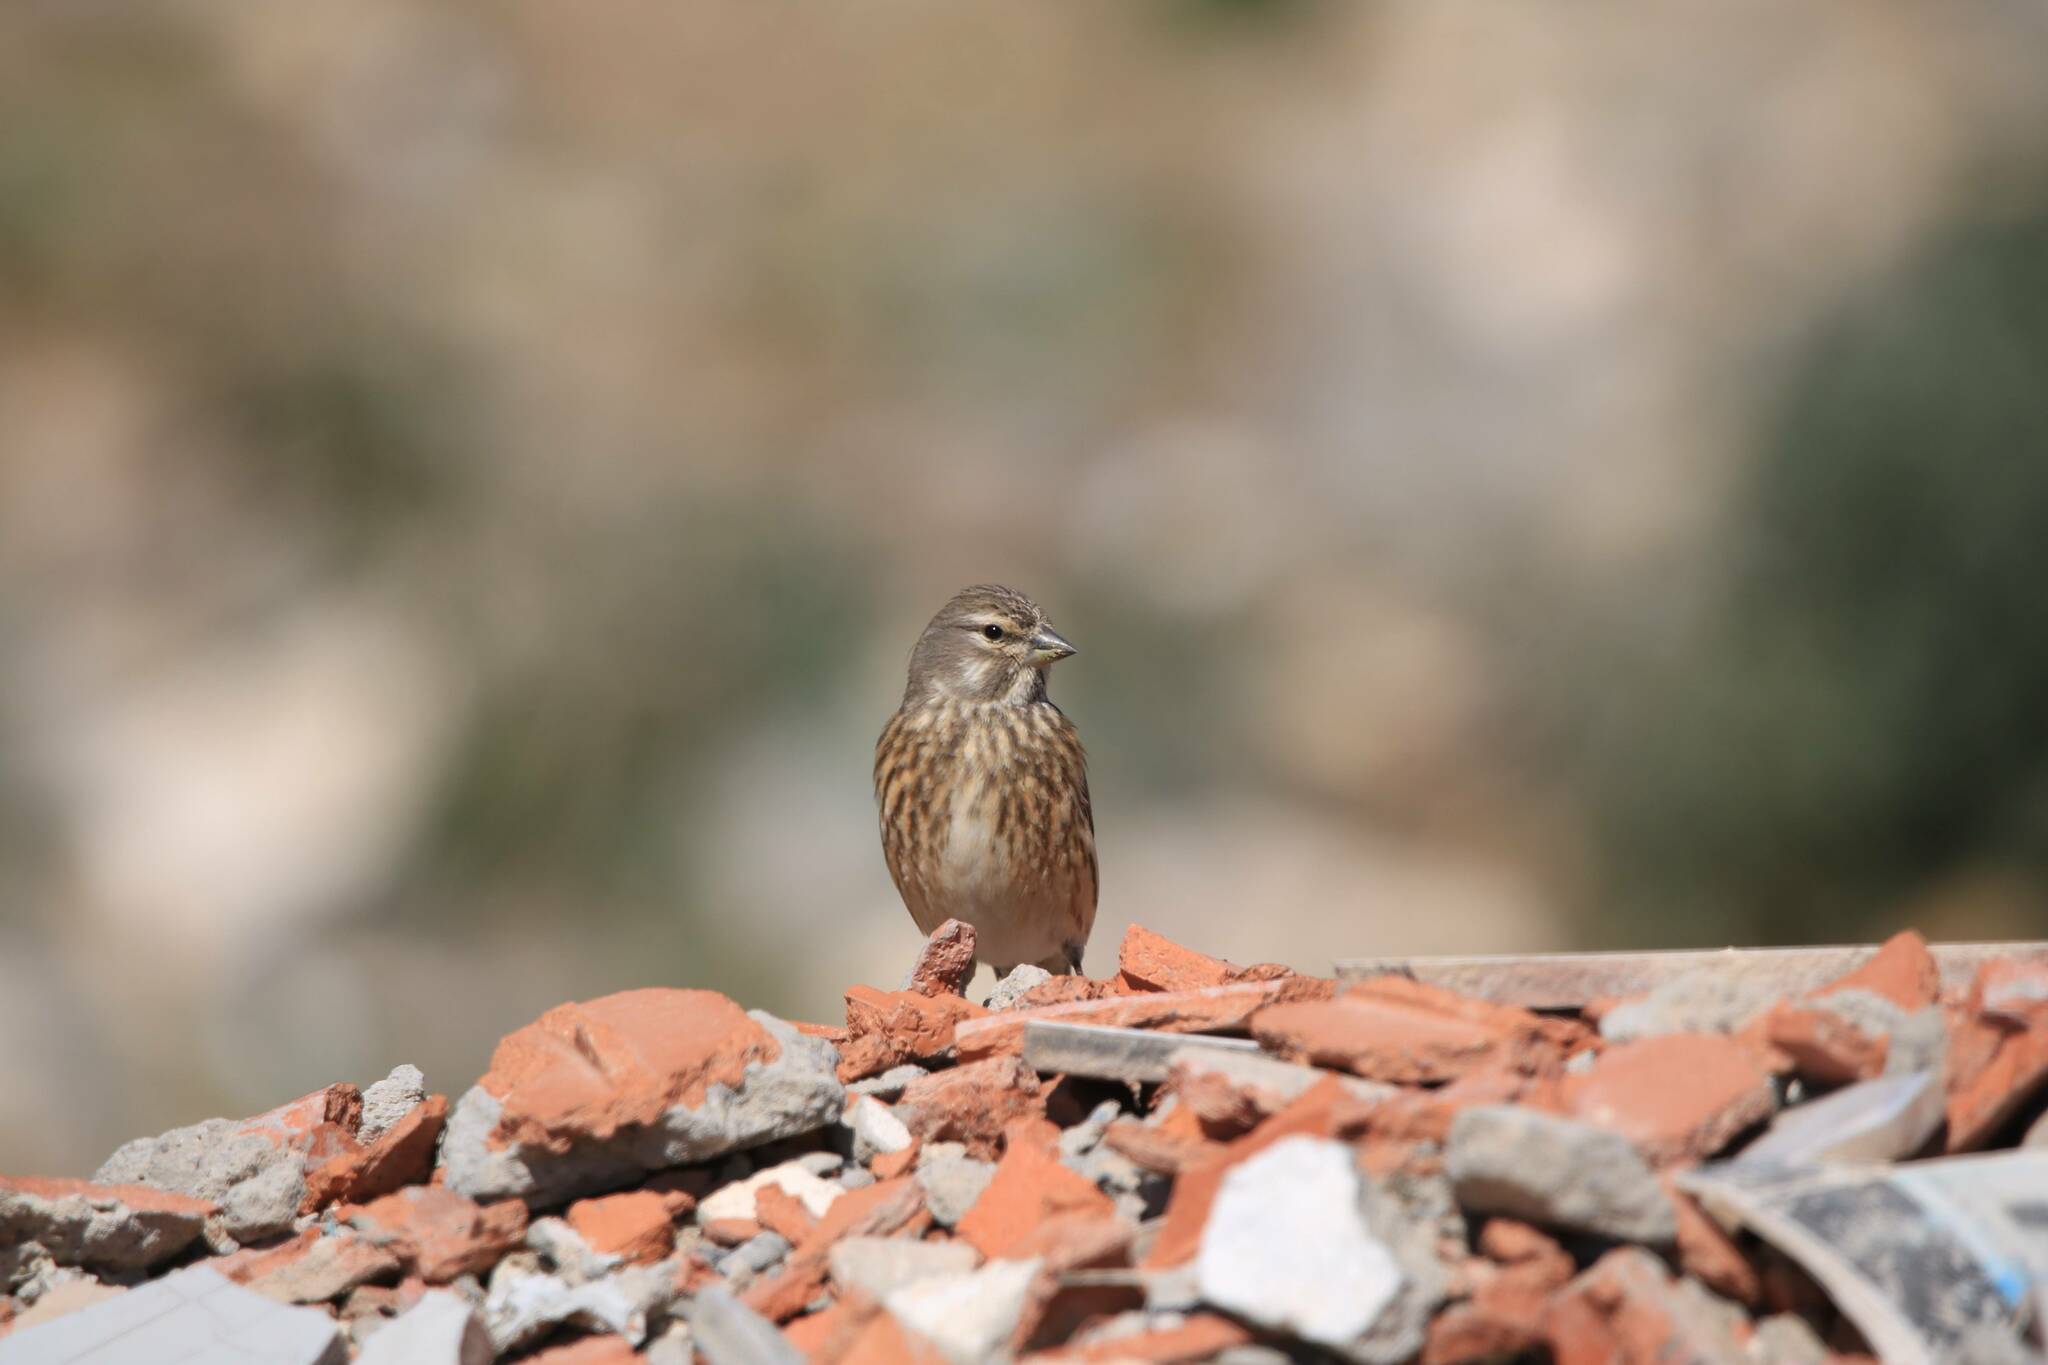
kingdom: Animalia
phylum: Chordata
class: Aves
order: Passeriformes
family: Fringillidae
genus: Linaria
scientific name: Linaria cannabina
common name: Common linnet
